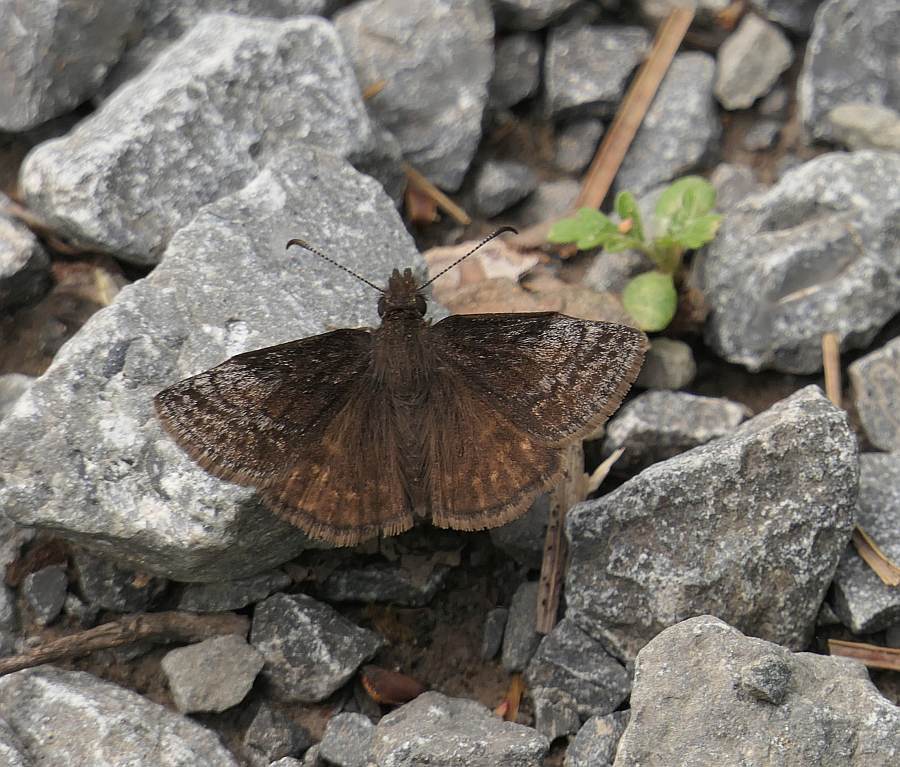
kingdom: Animalia
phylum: Arthropoda
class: Insecta
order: Lepidoptera
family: Hesperiidae
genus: Erynnis
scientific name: Erynnis icelus
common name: Dreamy duskywing
